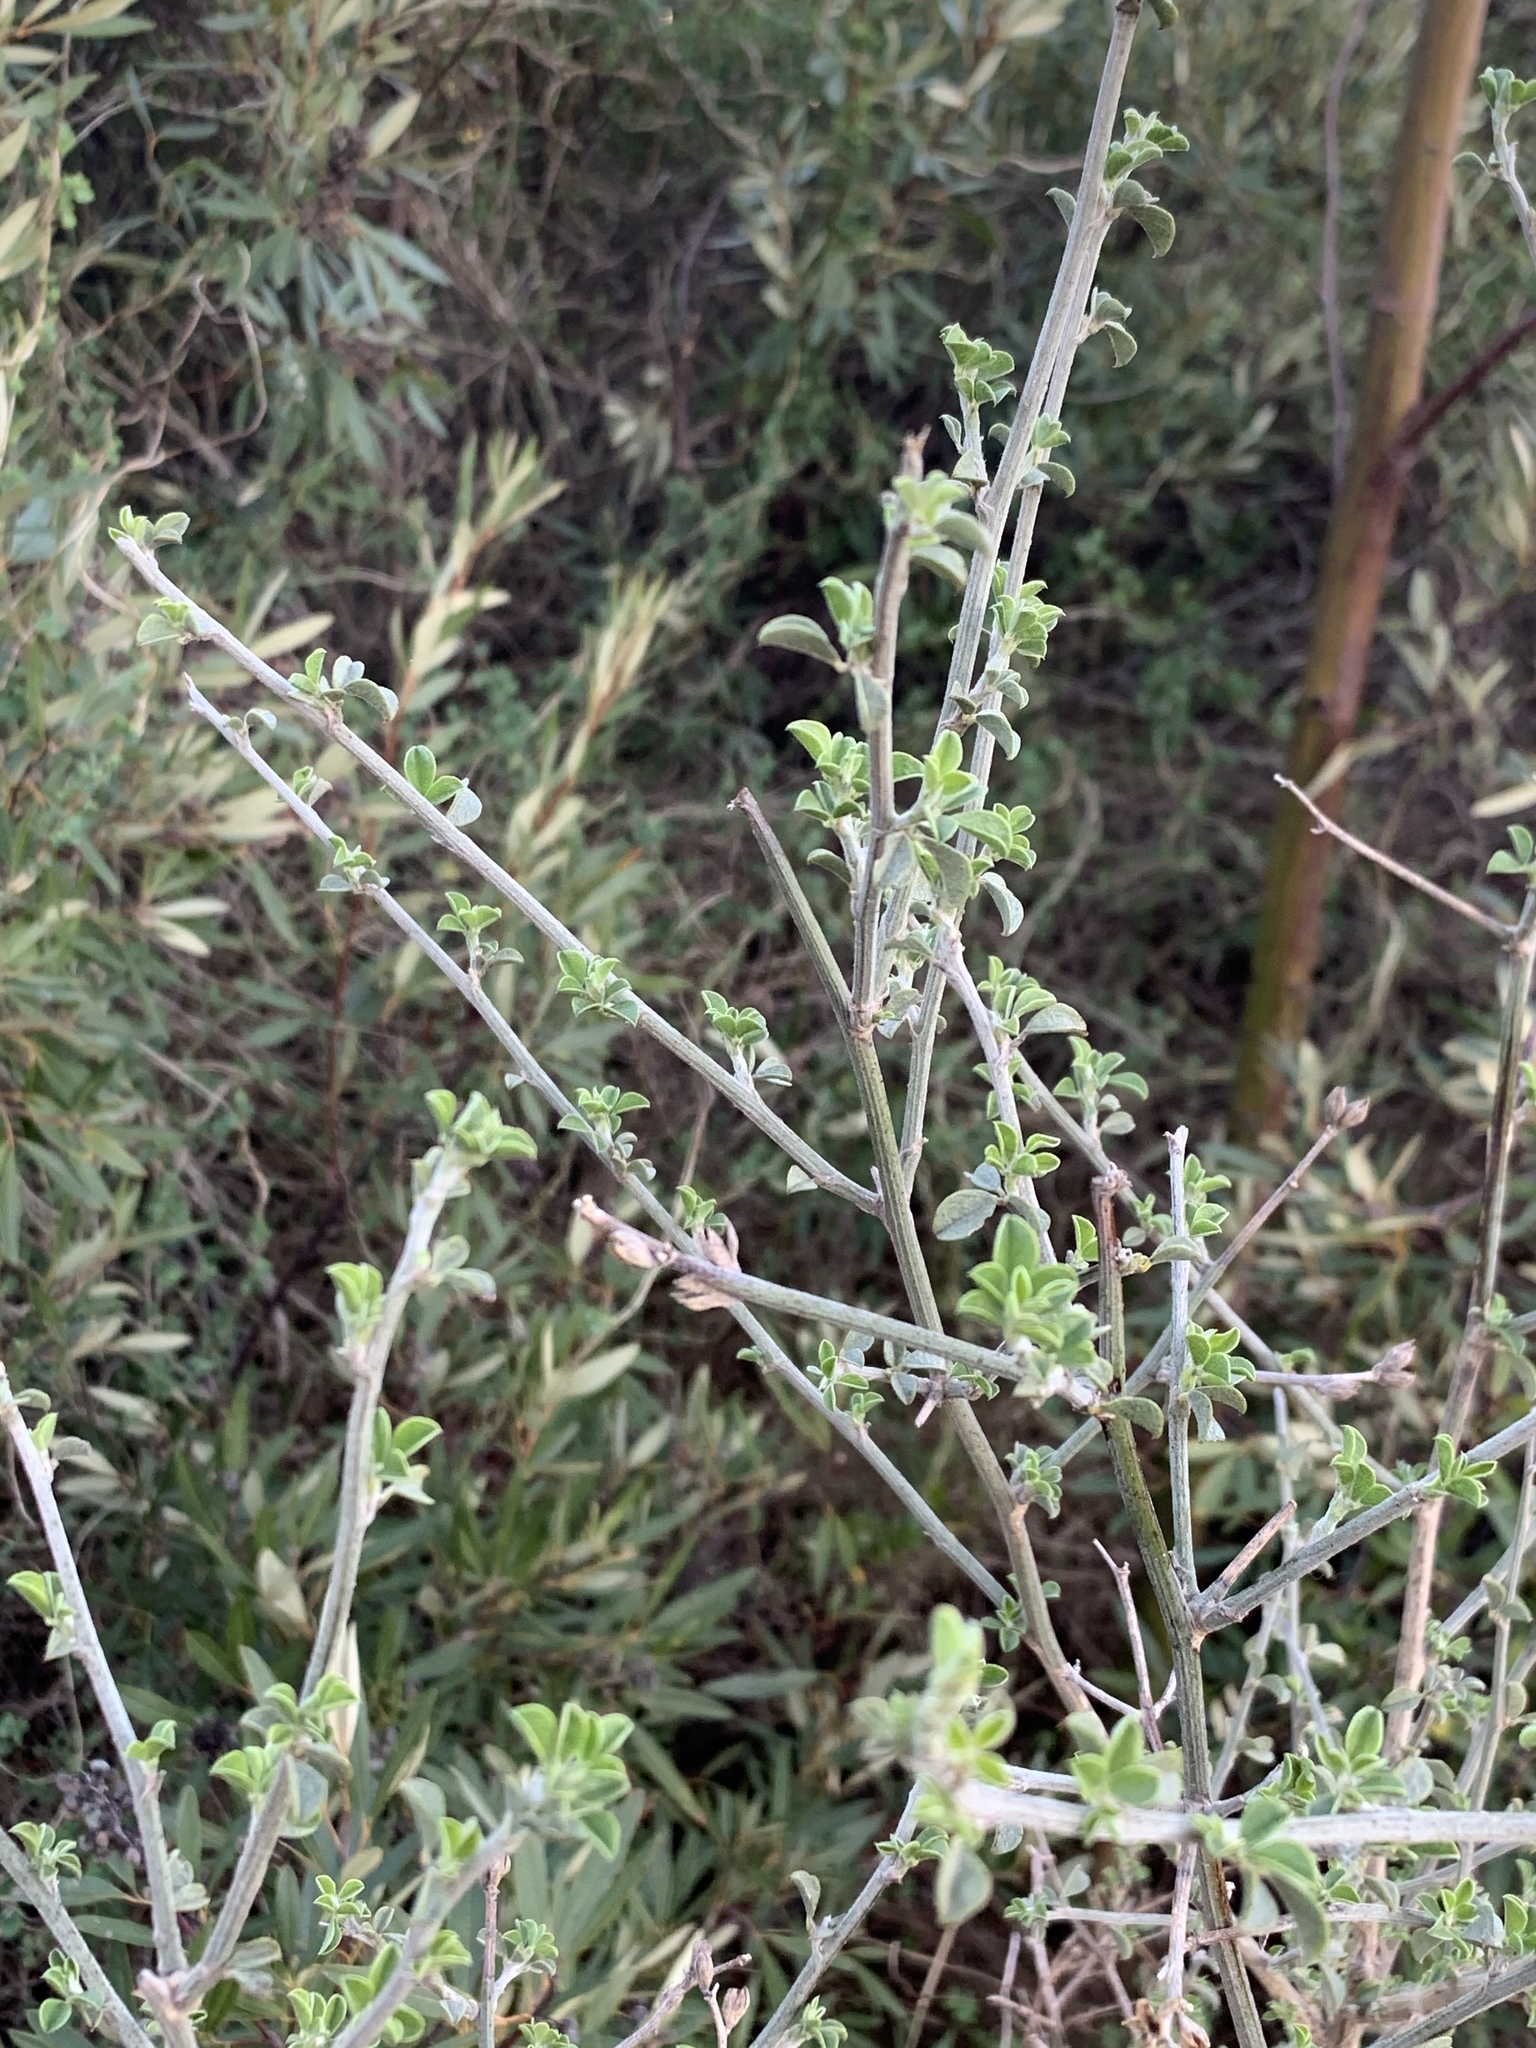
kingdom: Plantae
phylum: Tracheophyta
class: Magnoliopsida
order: Fabales
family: Fabaceae
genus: Psoralea
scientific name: Psoralea hirta
